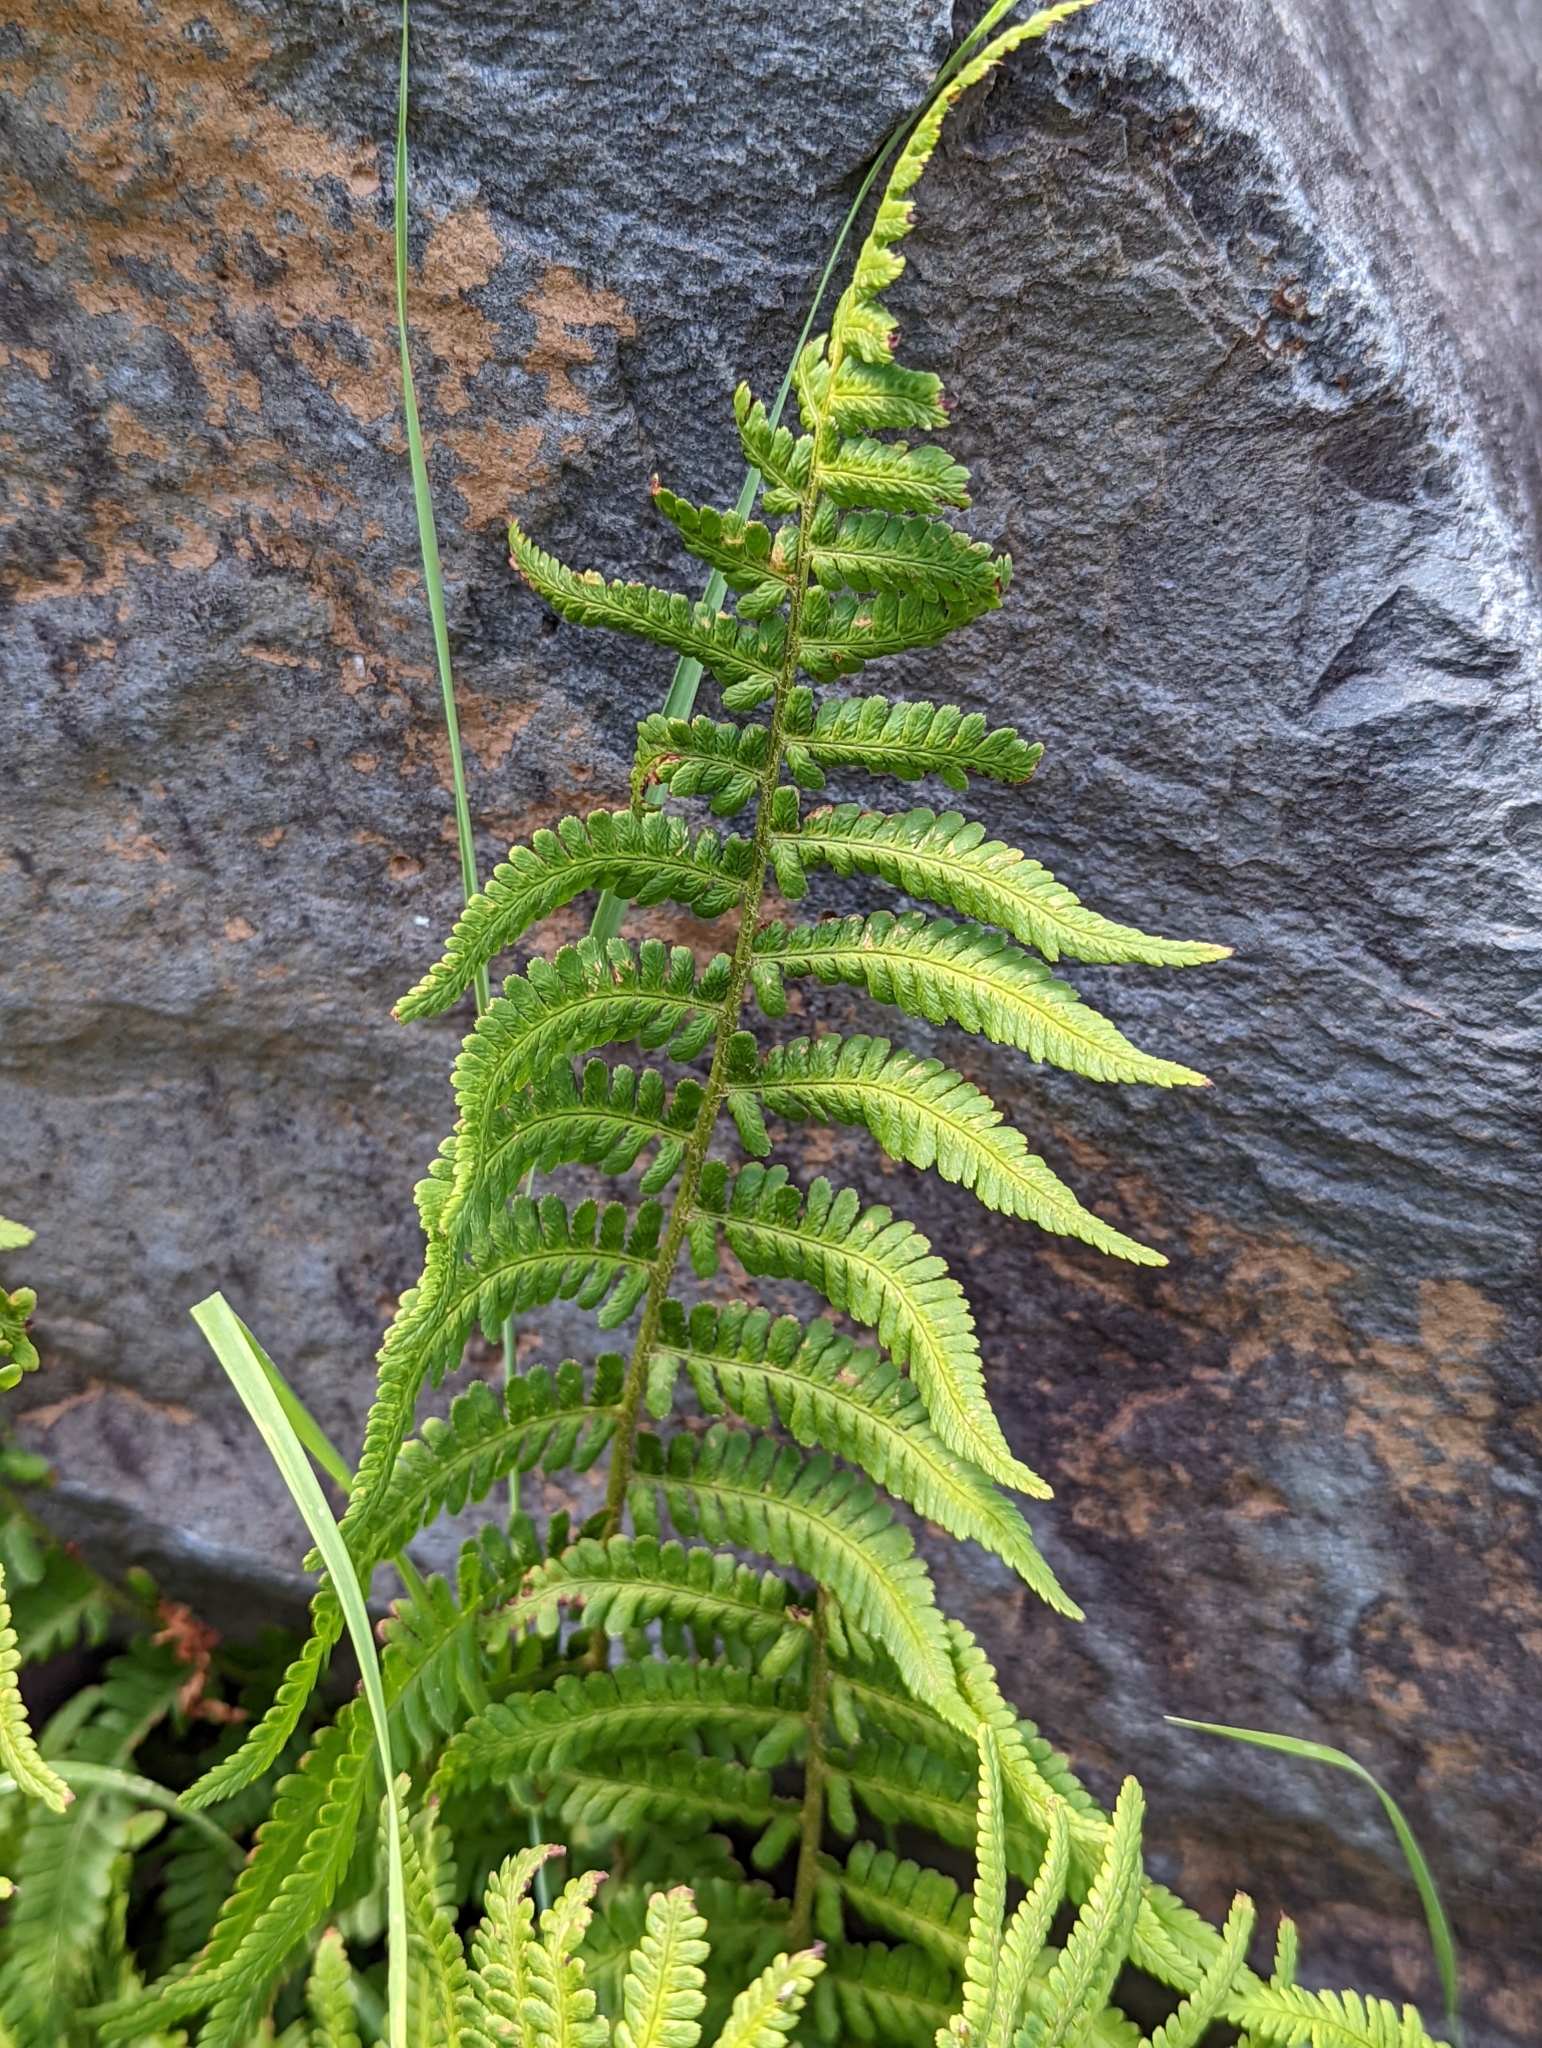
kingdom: Plantae
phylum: Tracheophyta
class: Polypodiopsida
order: Polypodiales
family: Dryopteridaceae
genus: Dryopteris
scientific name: Dryopteris filix-mas
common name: Male fern
